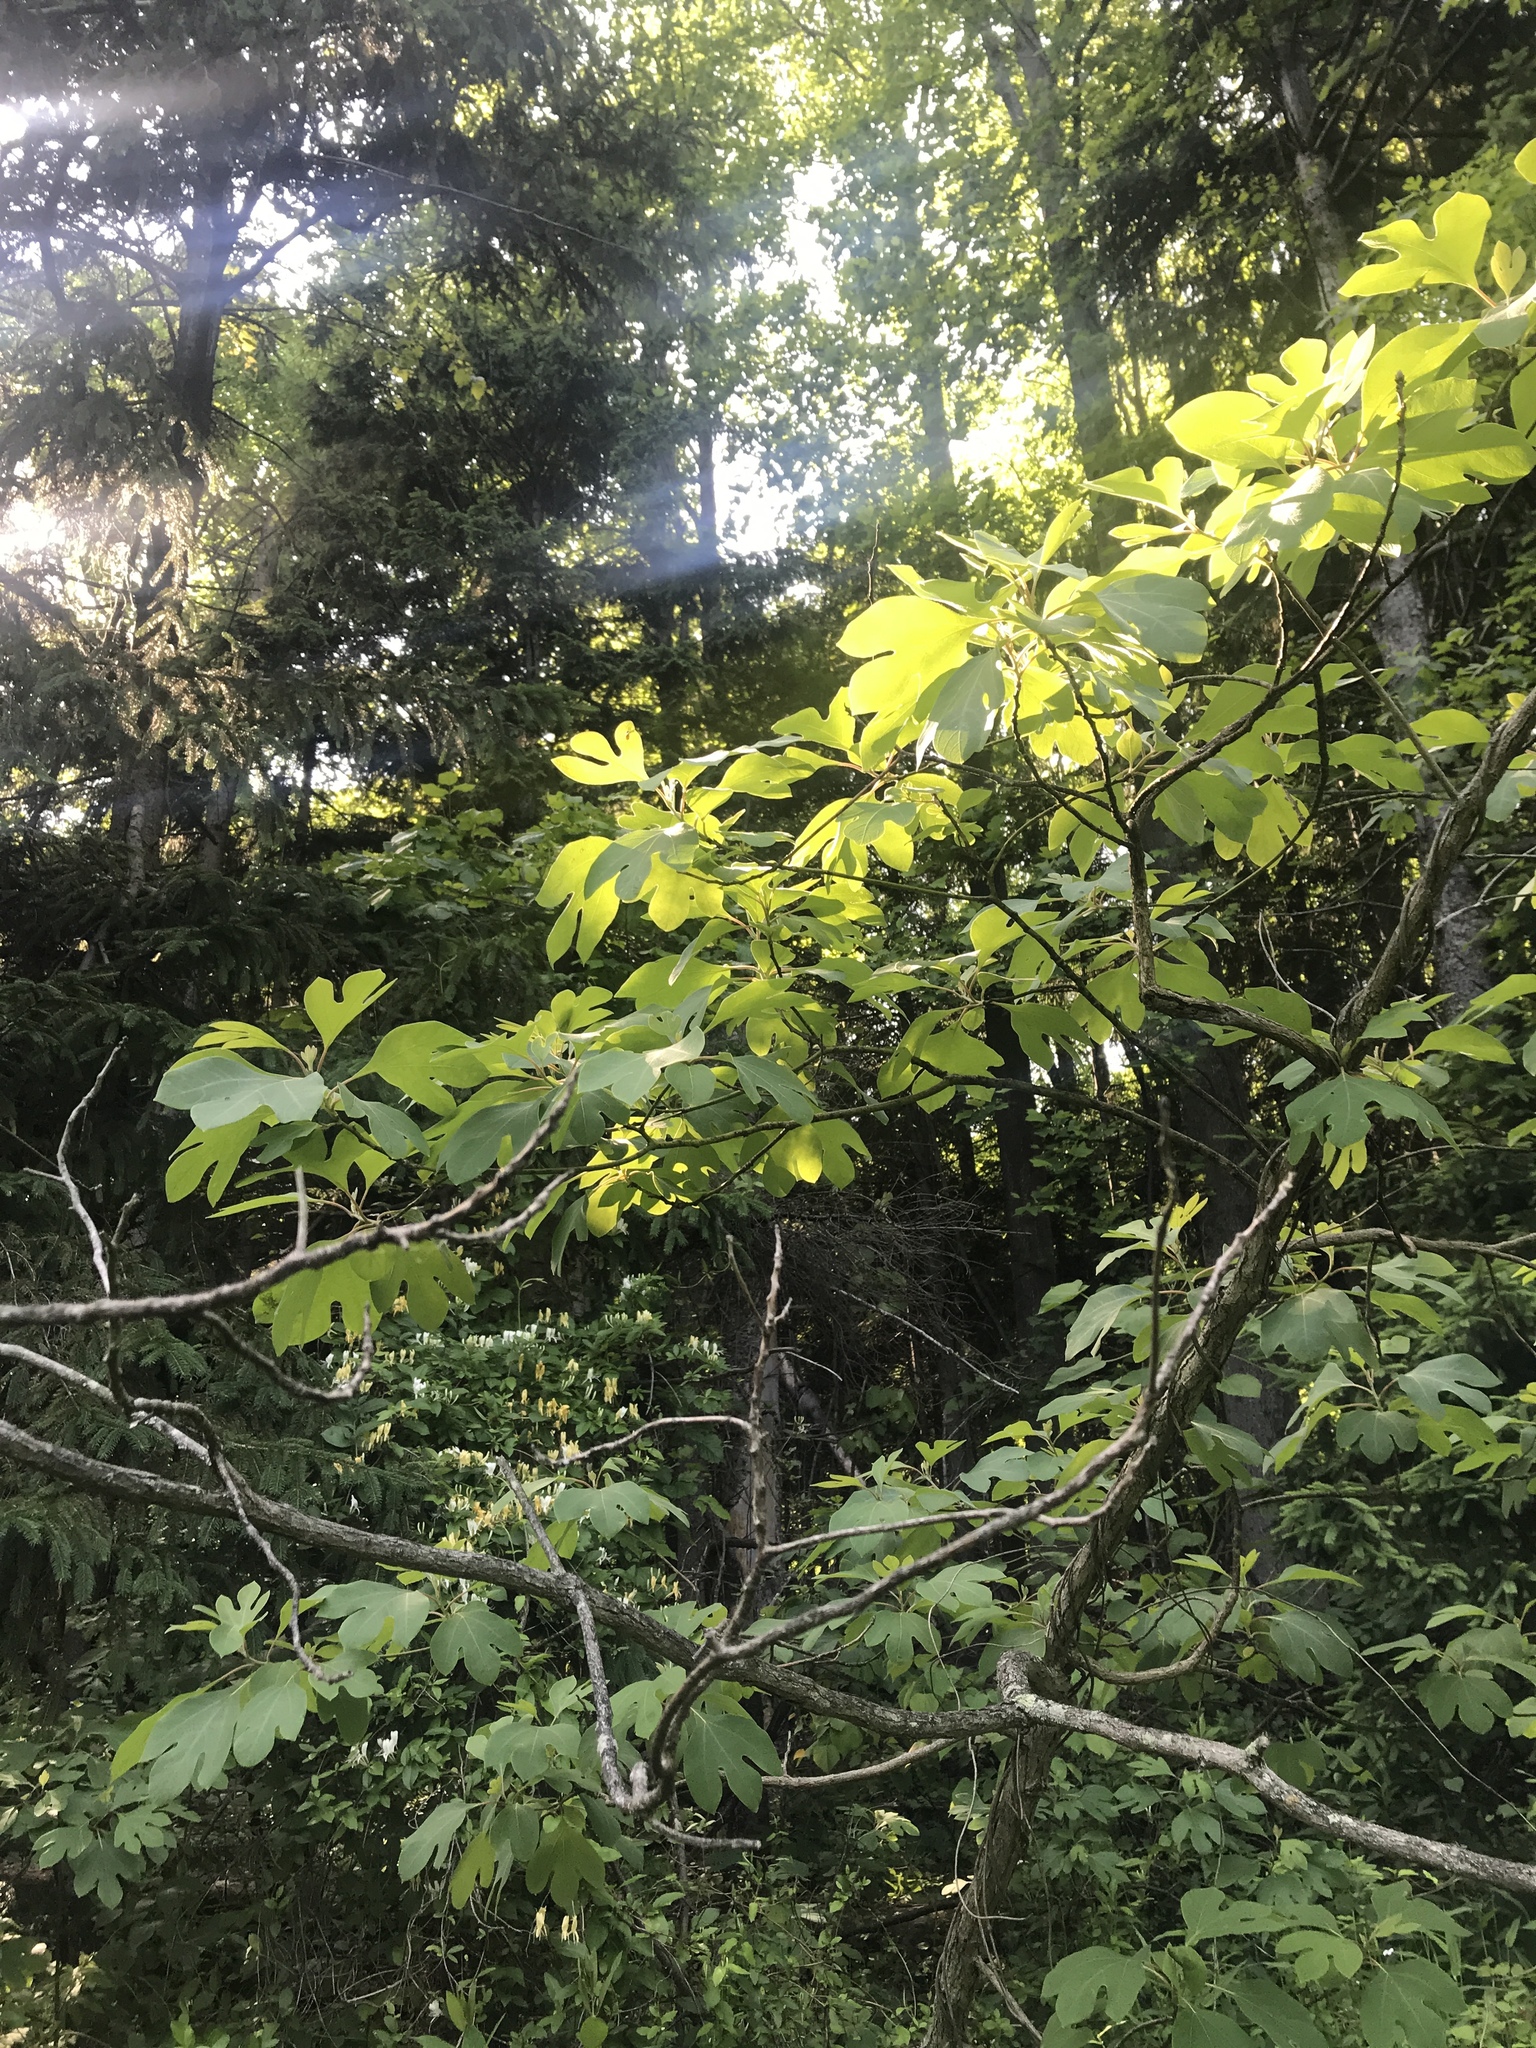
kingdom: Plantae
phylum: Tracheophyta
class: Magnoliopsida
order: Laurales
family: Lauraceae
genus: Sassafras
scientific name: Sassafras albidum
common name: Sassafras
